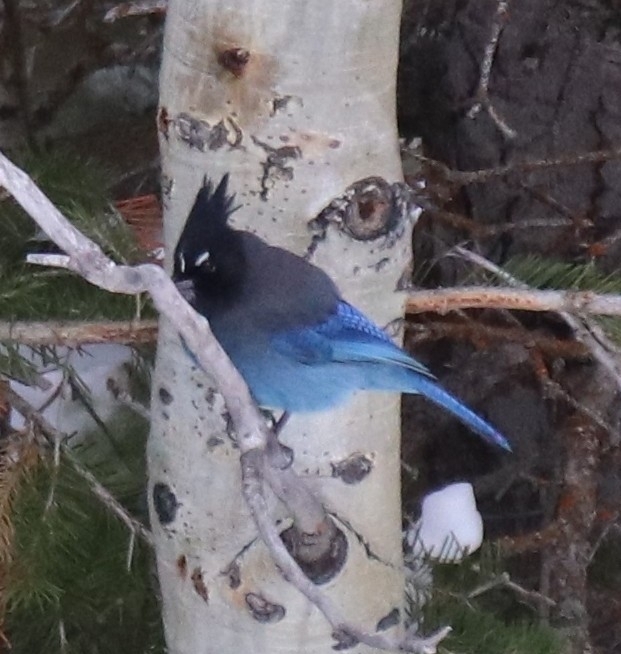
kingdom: Animalia
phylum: Chordata
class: Aves
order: Passeriformes
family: Corvidae
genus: Cyanocitta
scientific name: Cyanocitta stelleri
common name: Steller's jay
